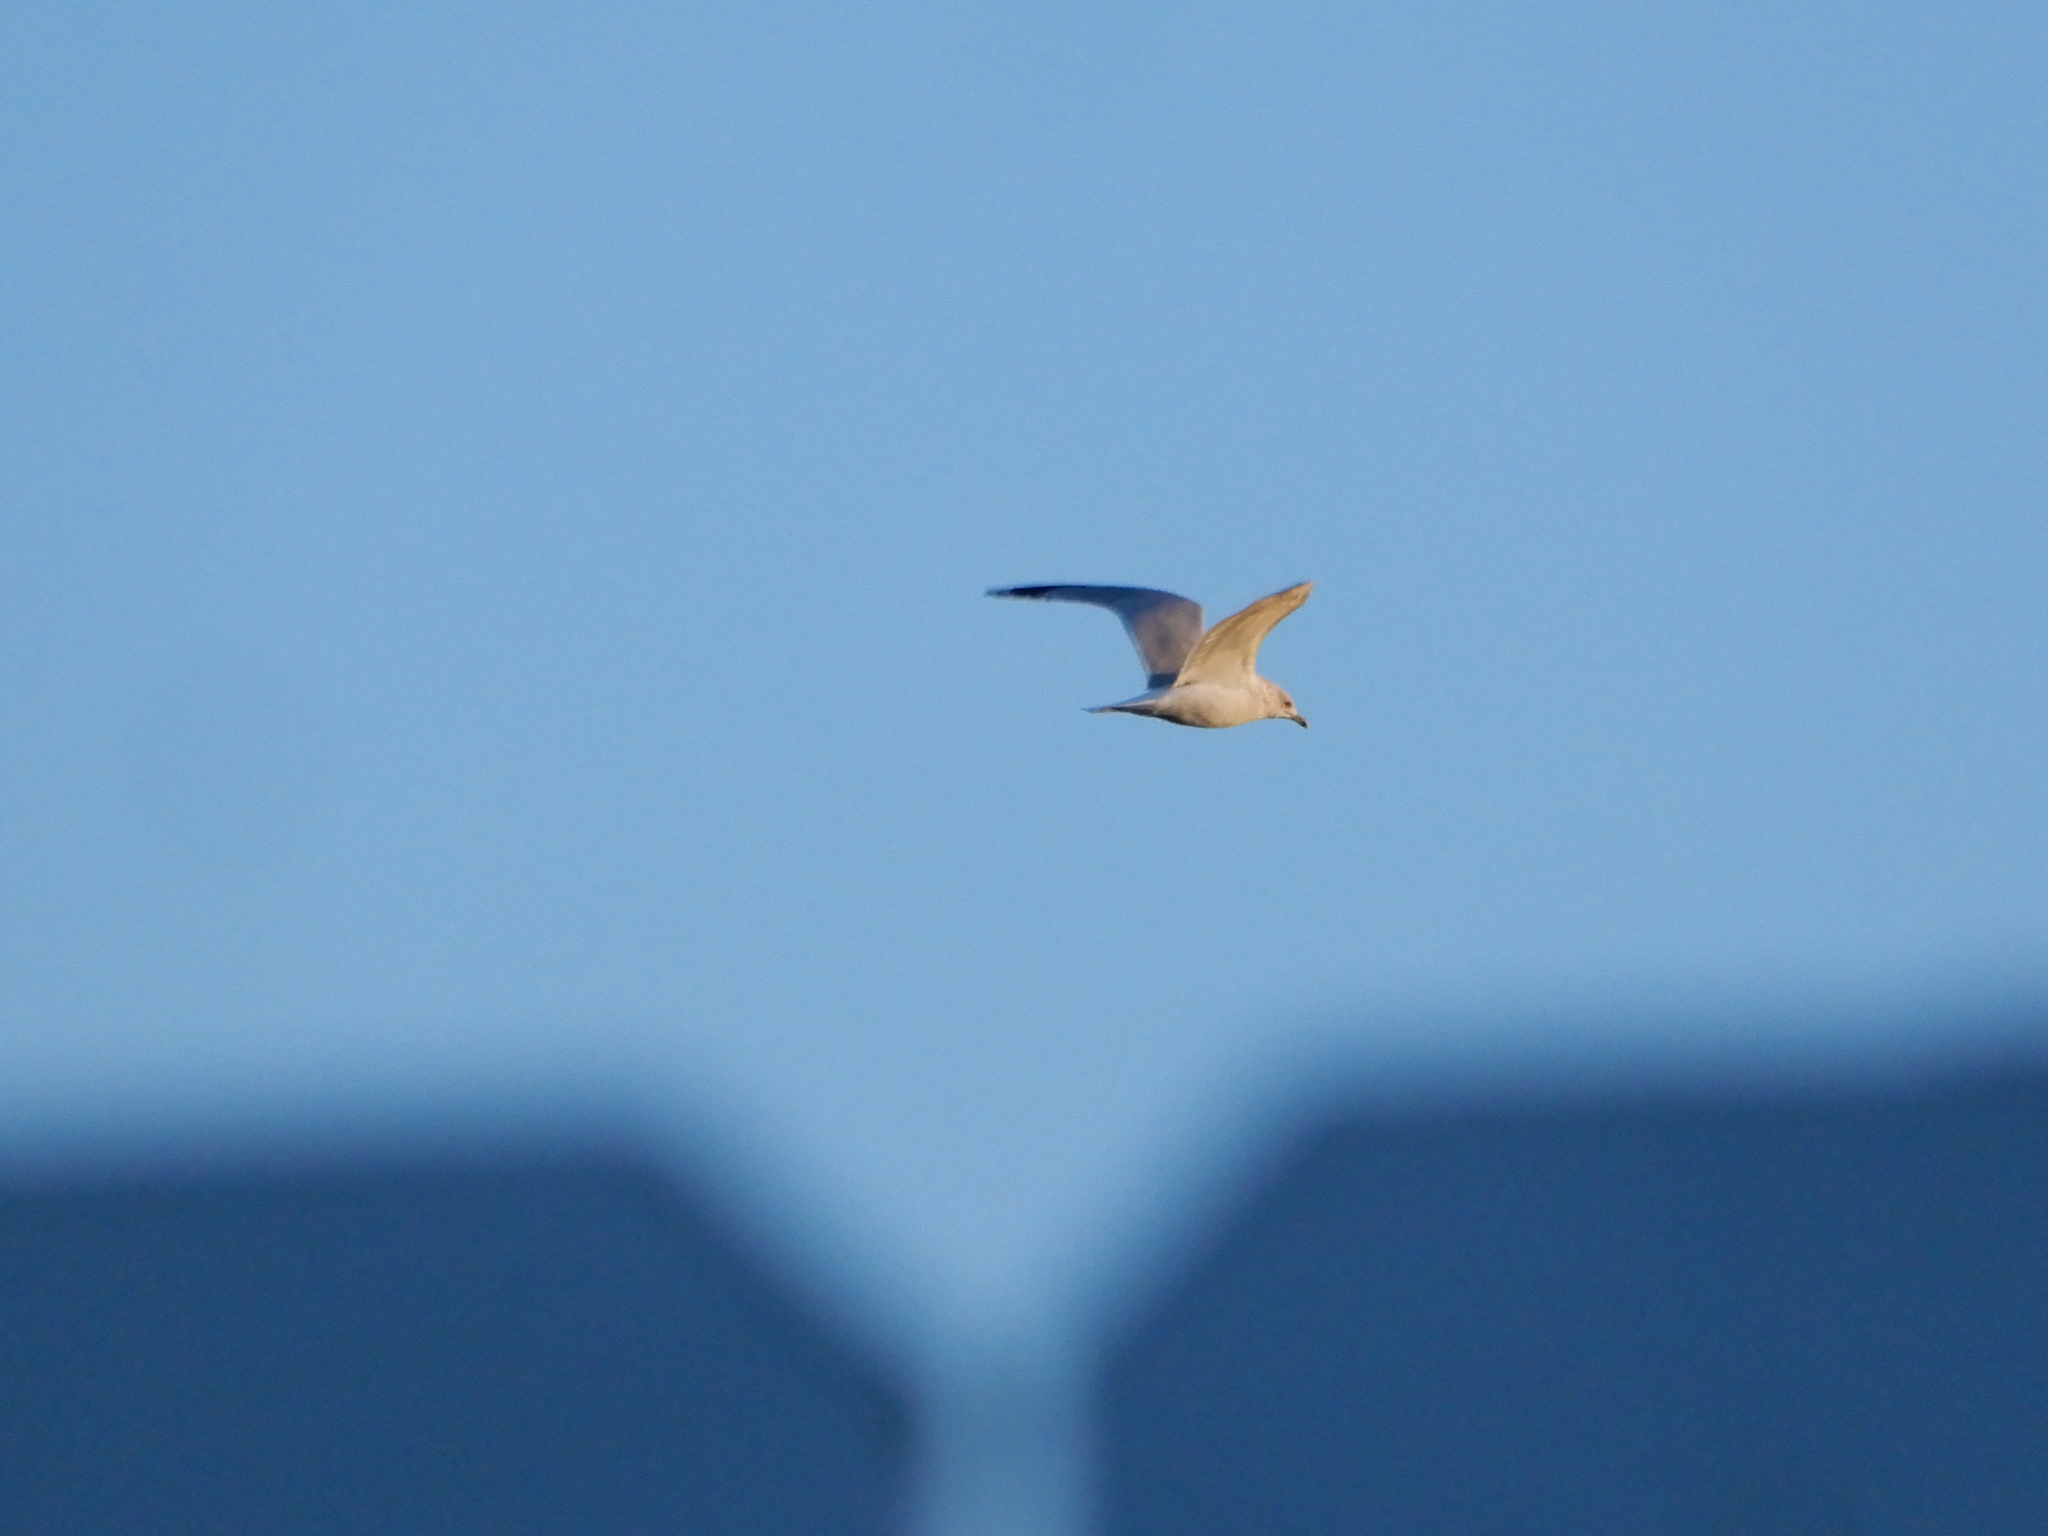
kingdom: Animalia
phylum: Chordata
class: Aves
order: Charadriiformes
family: Laridae
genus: Larus
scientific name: Larus delawarensis
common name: Ring-billed gull
